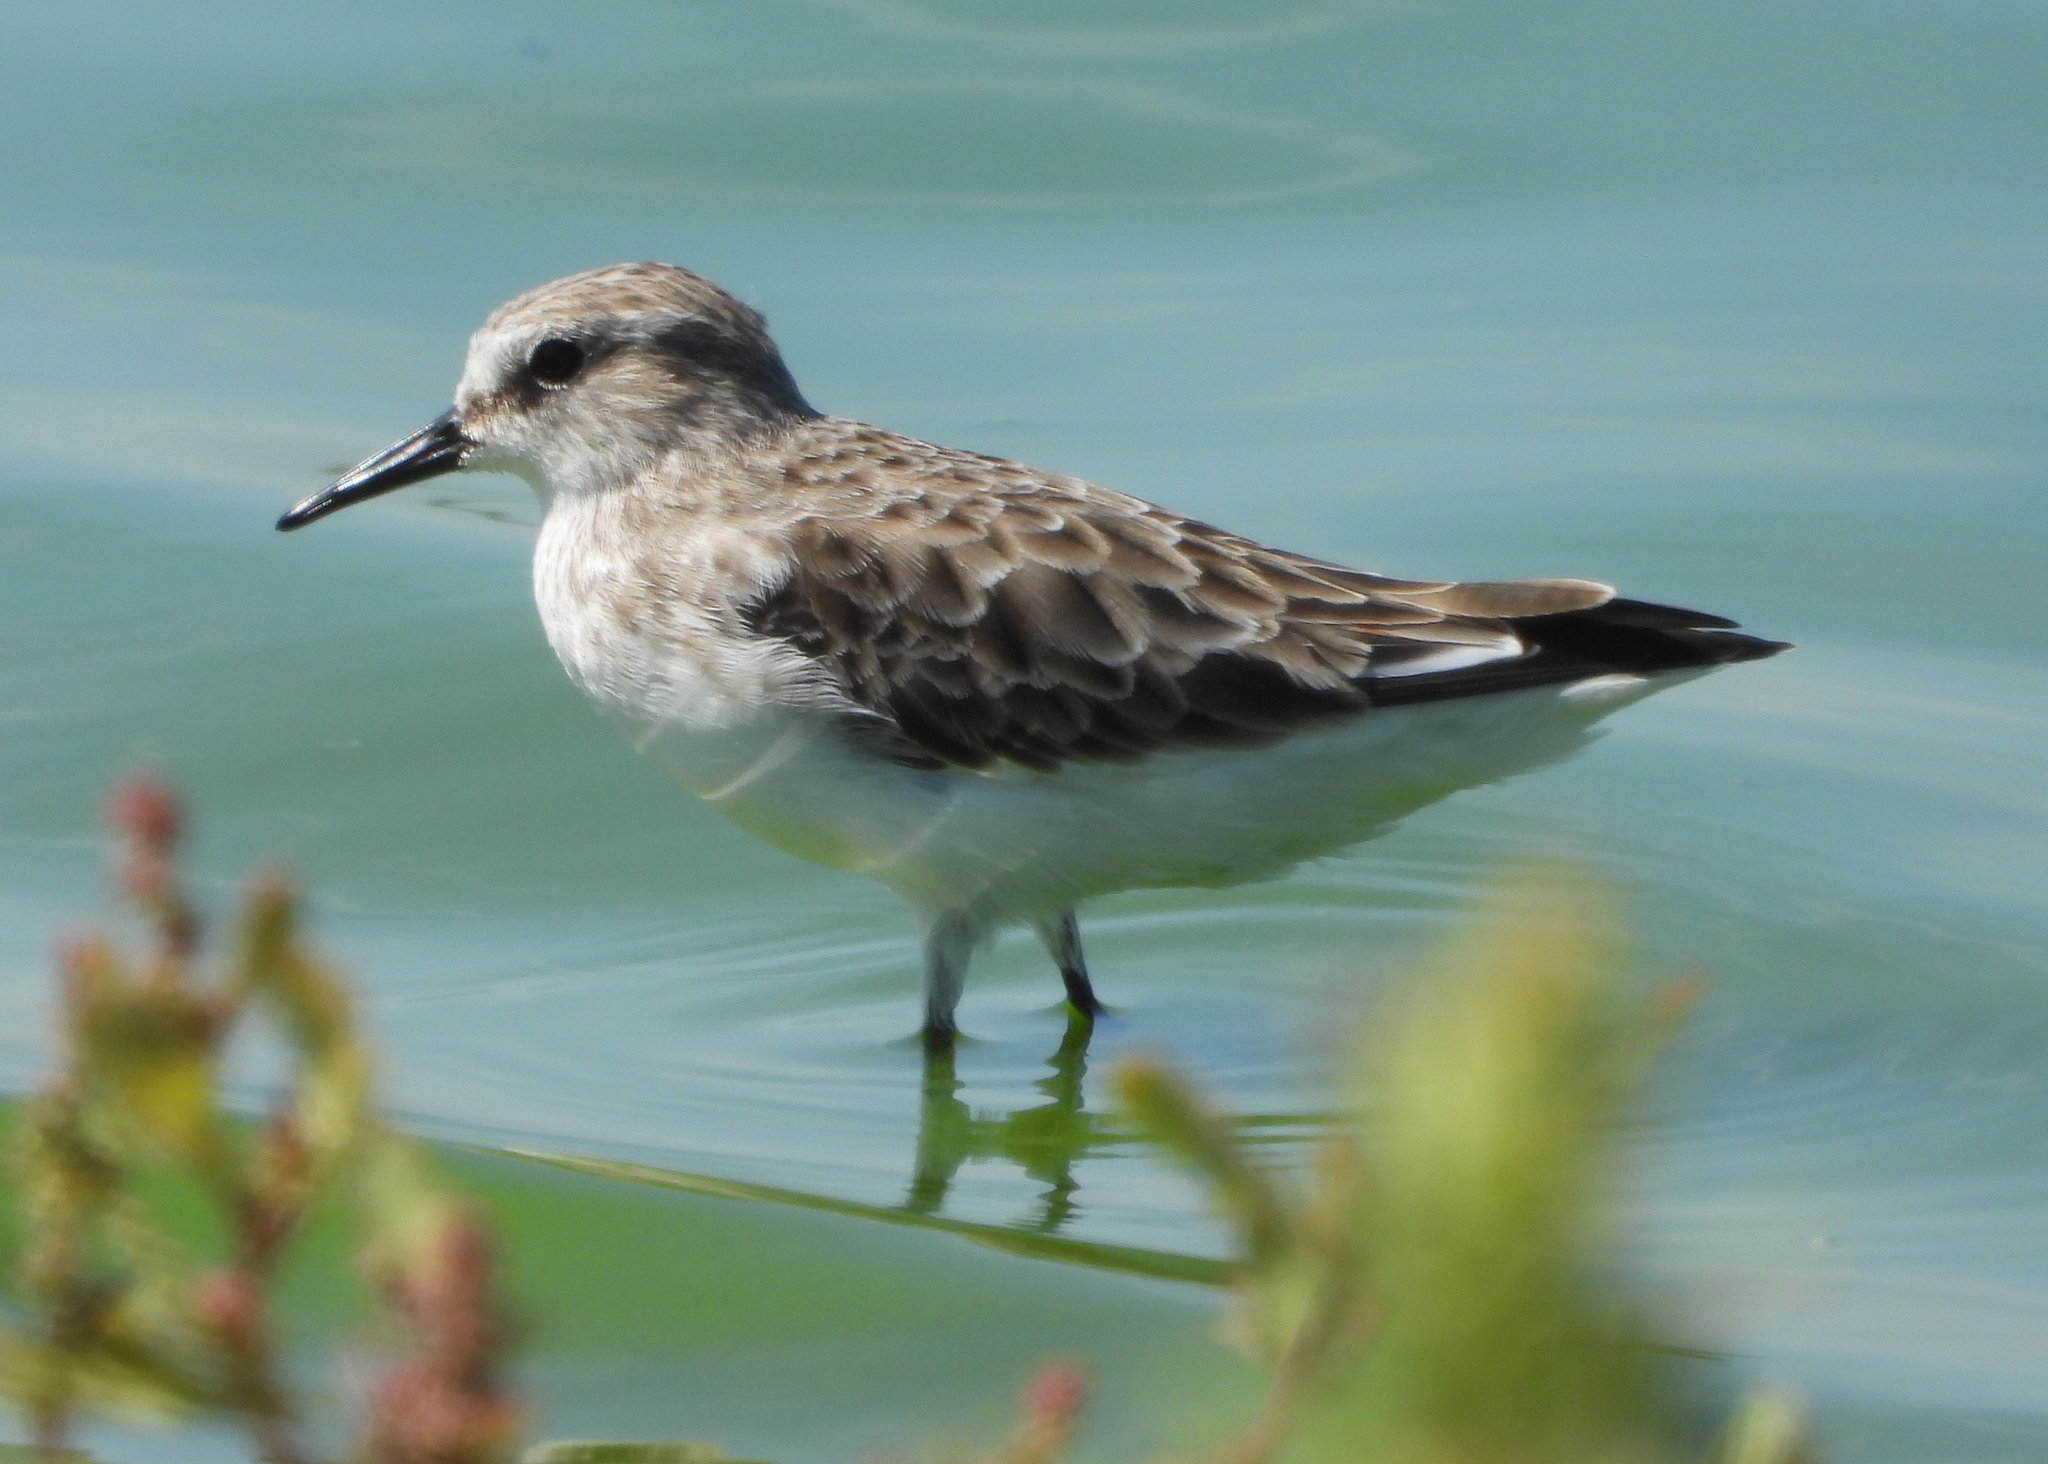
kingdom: Animalia
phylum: Chordata
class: Aves
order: Charadriiformes
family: Scolopacidae
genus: Calidris
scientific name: Calidris minuta
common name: Little stint
